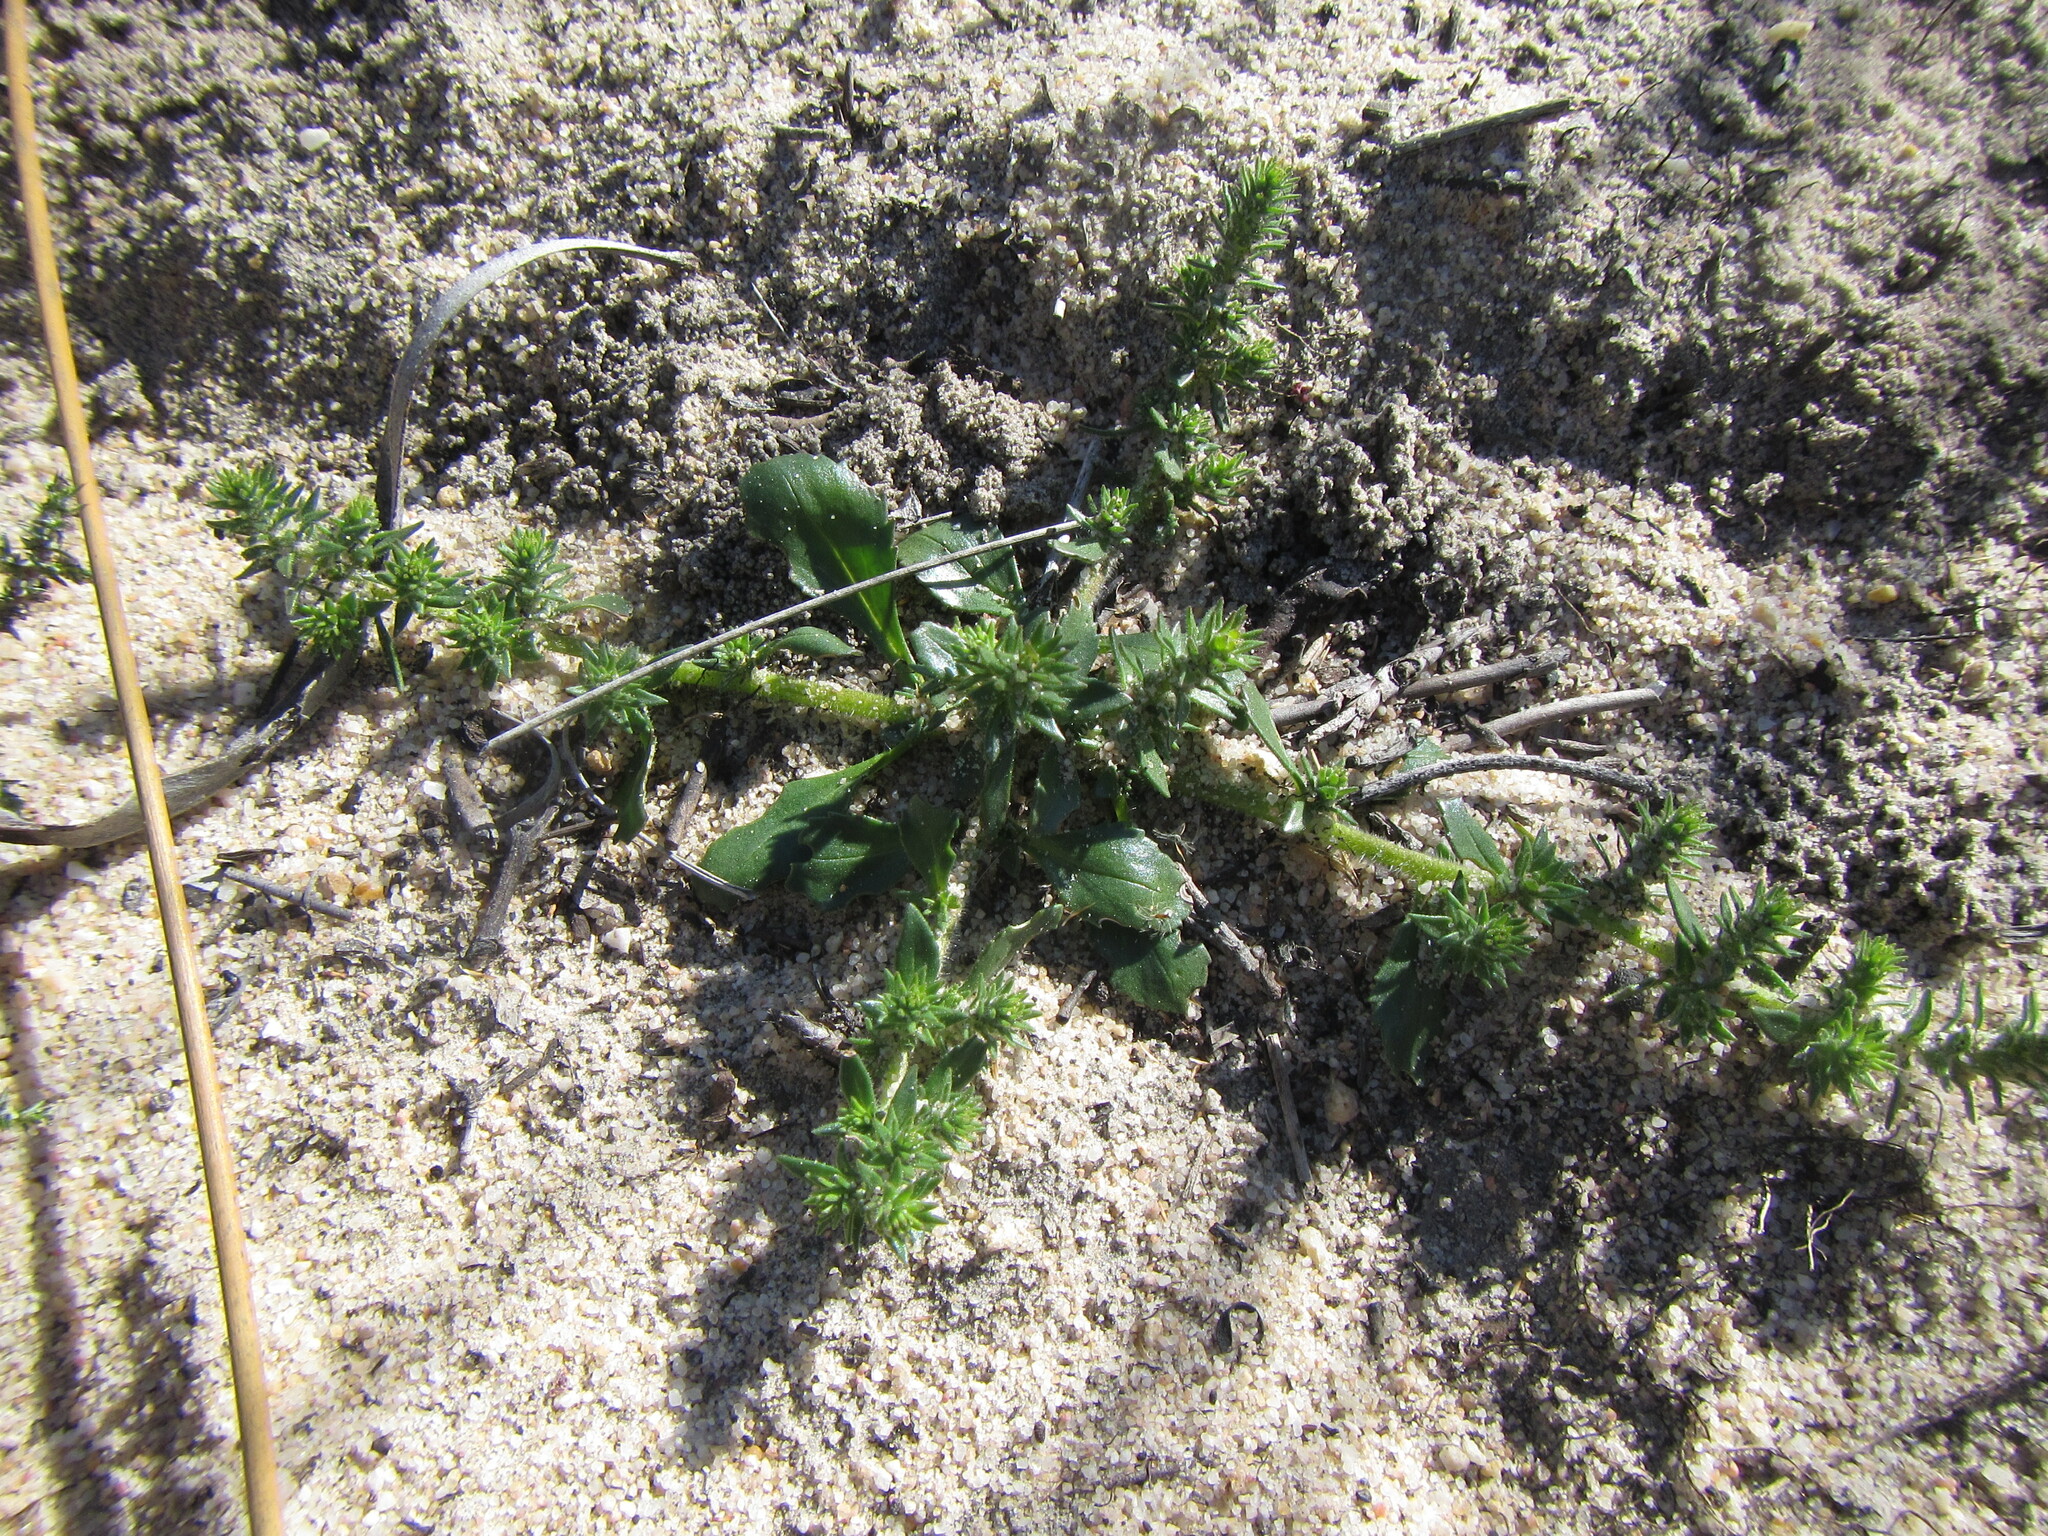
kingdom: Plantae
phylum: Tracheophyta
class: Magnoliopsida
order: Lamiales
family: Scrophulariaceae
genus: Chenopodiopsis
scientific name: Chenopodiopsis hirta
